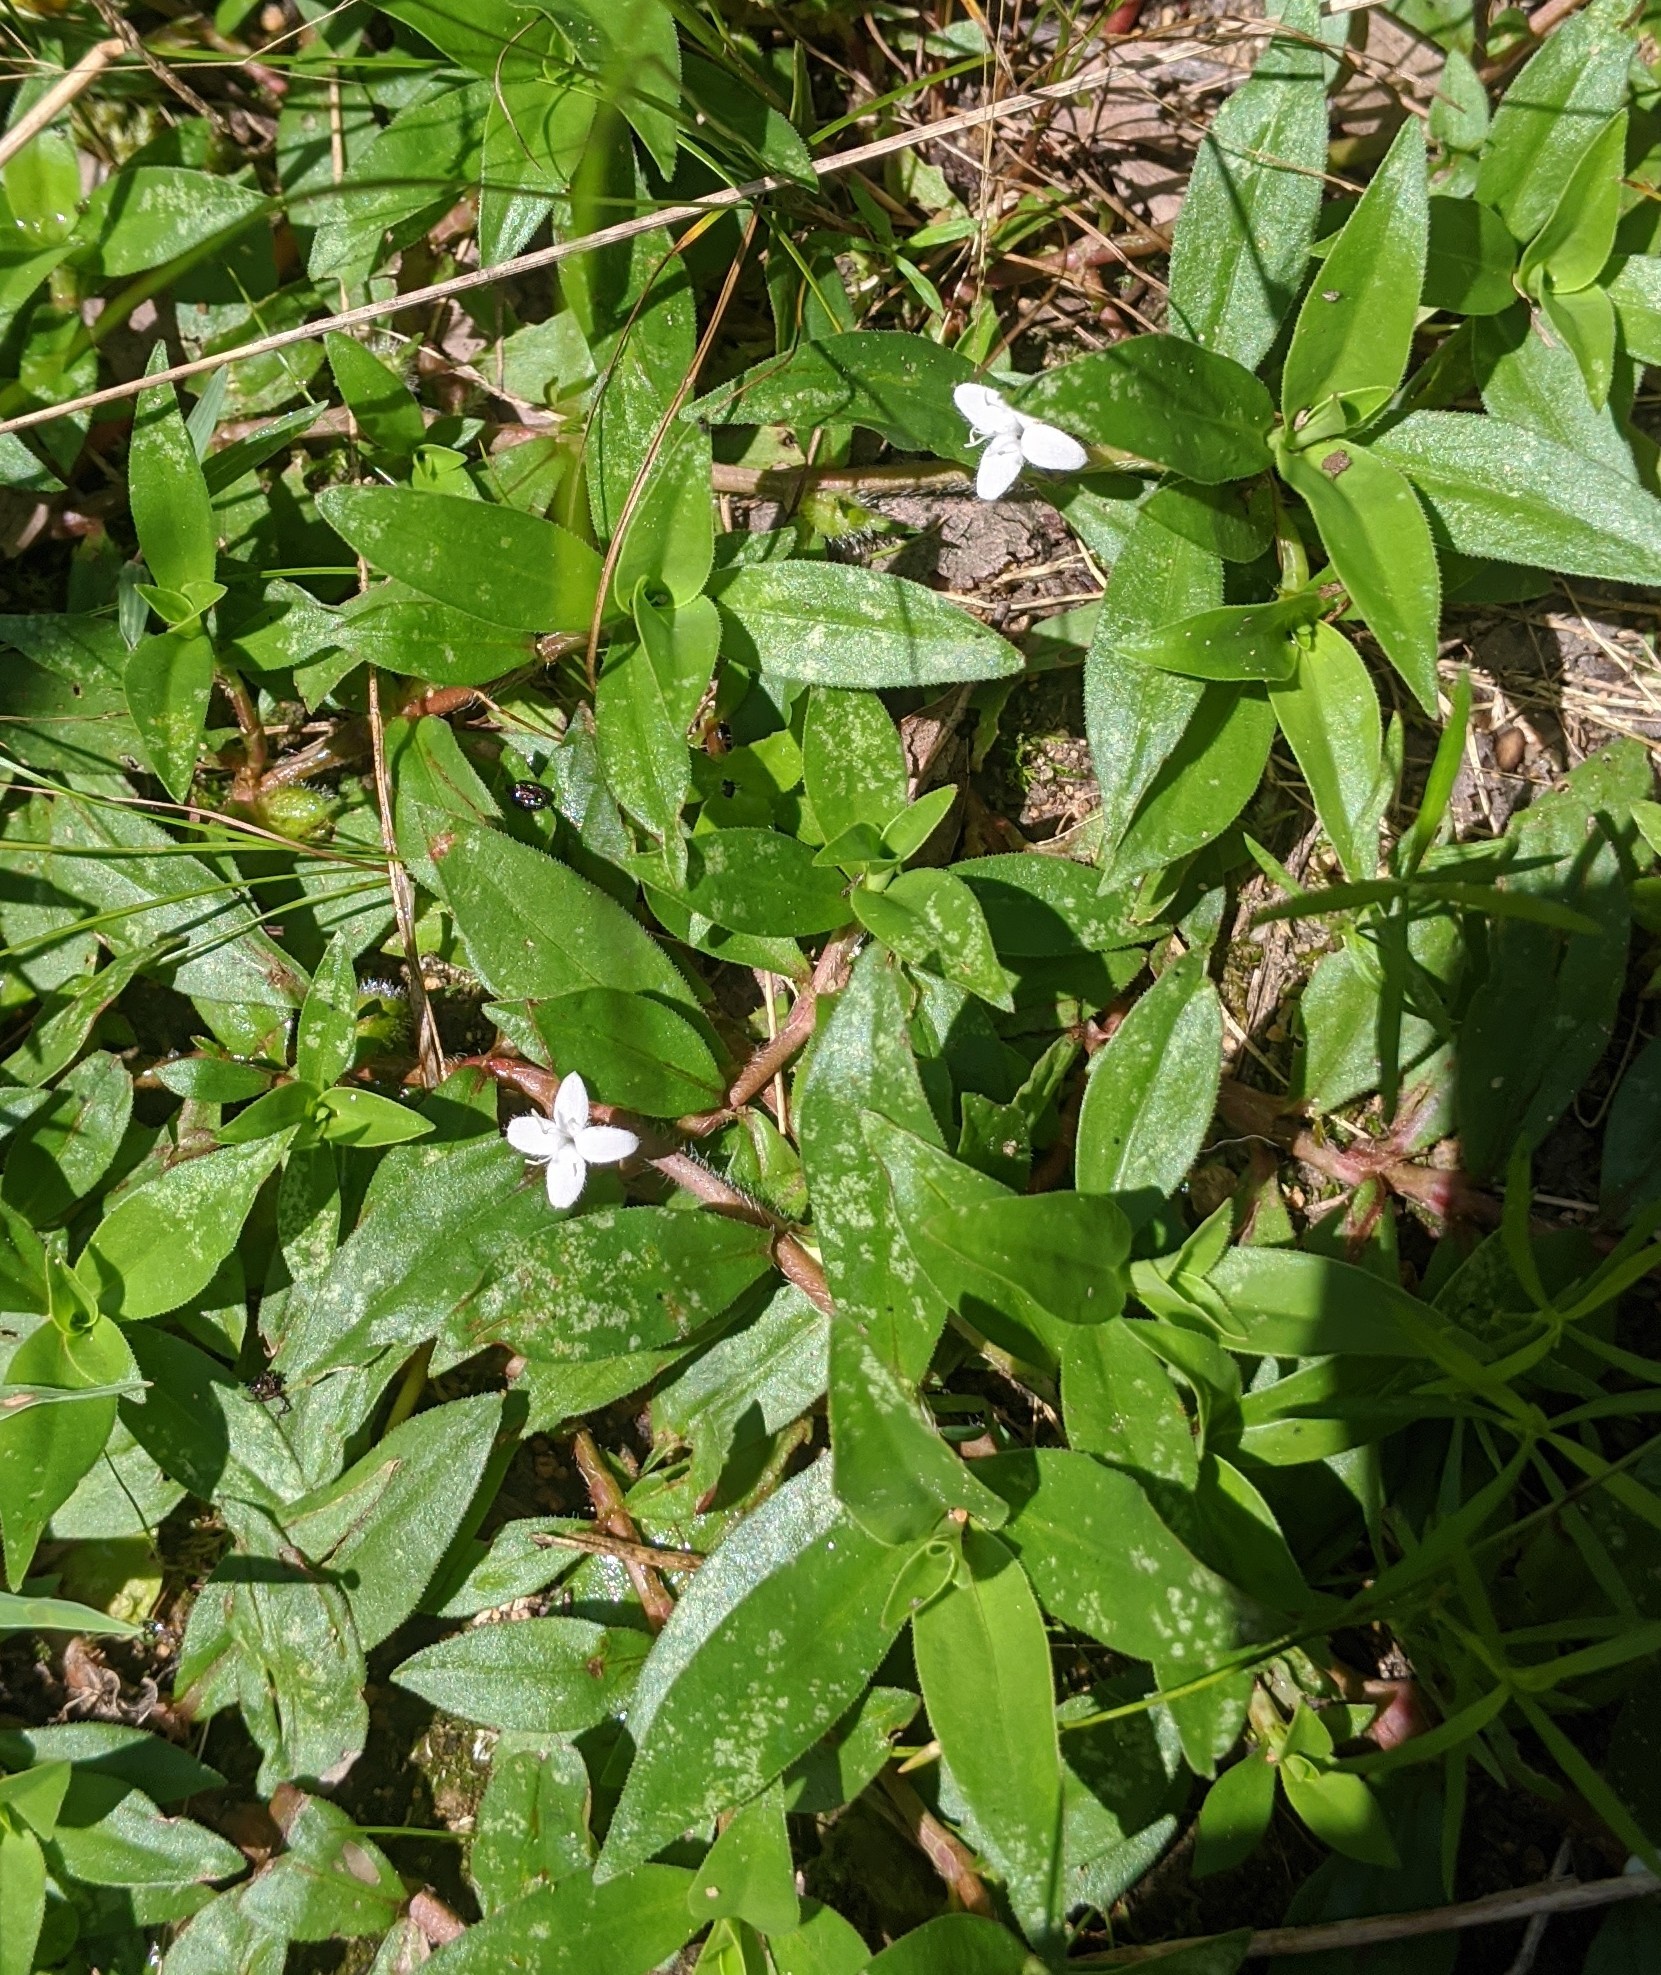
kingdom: Plantae
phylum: Tracheophyta
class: Magnoliopsida
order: Gentianales
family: Rubiaceae
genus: Diodia
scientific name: Diodia virginiana
